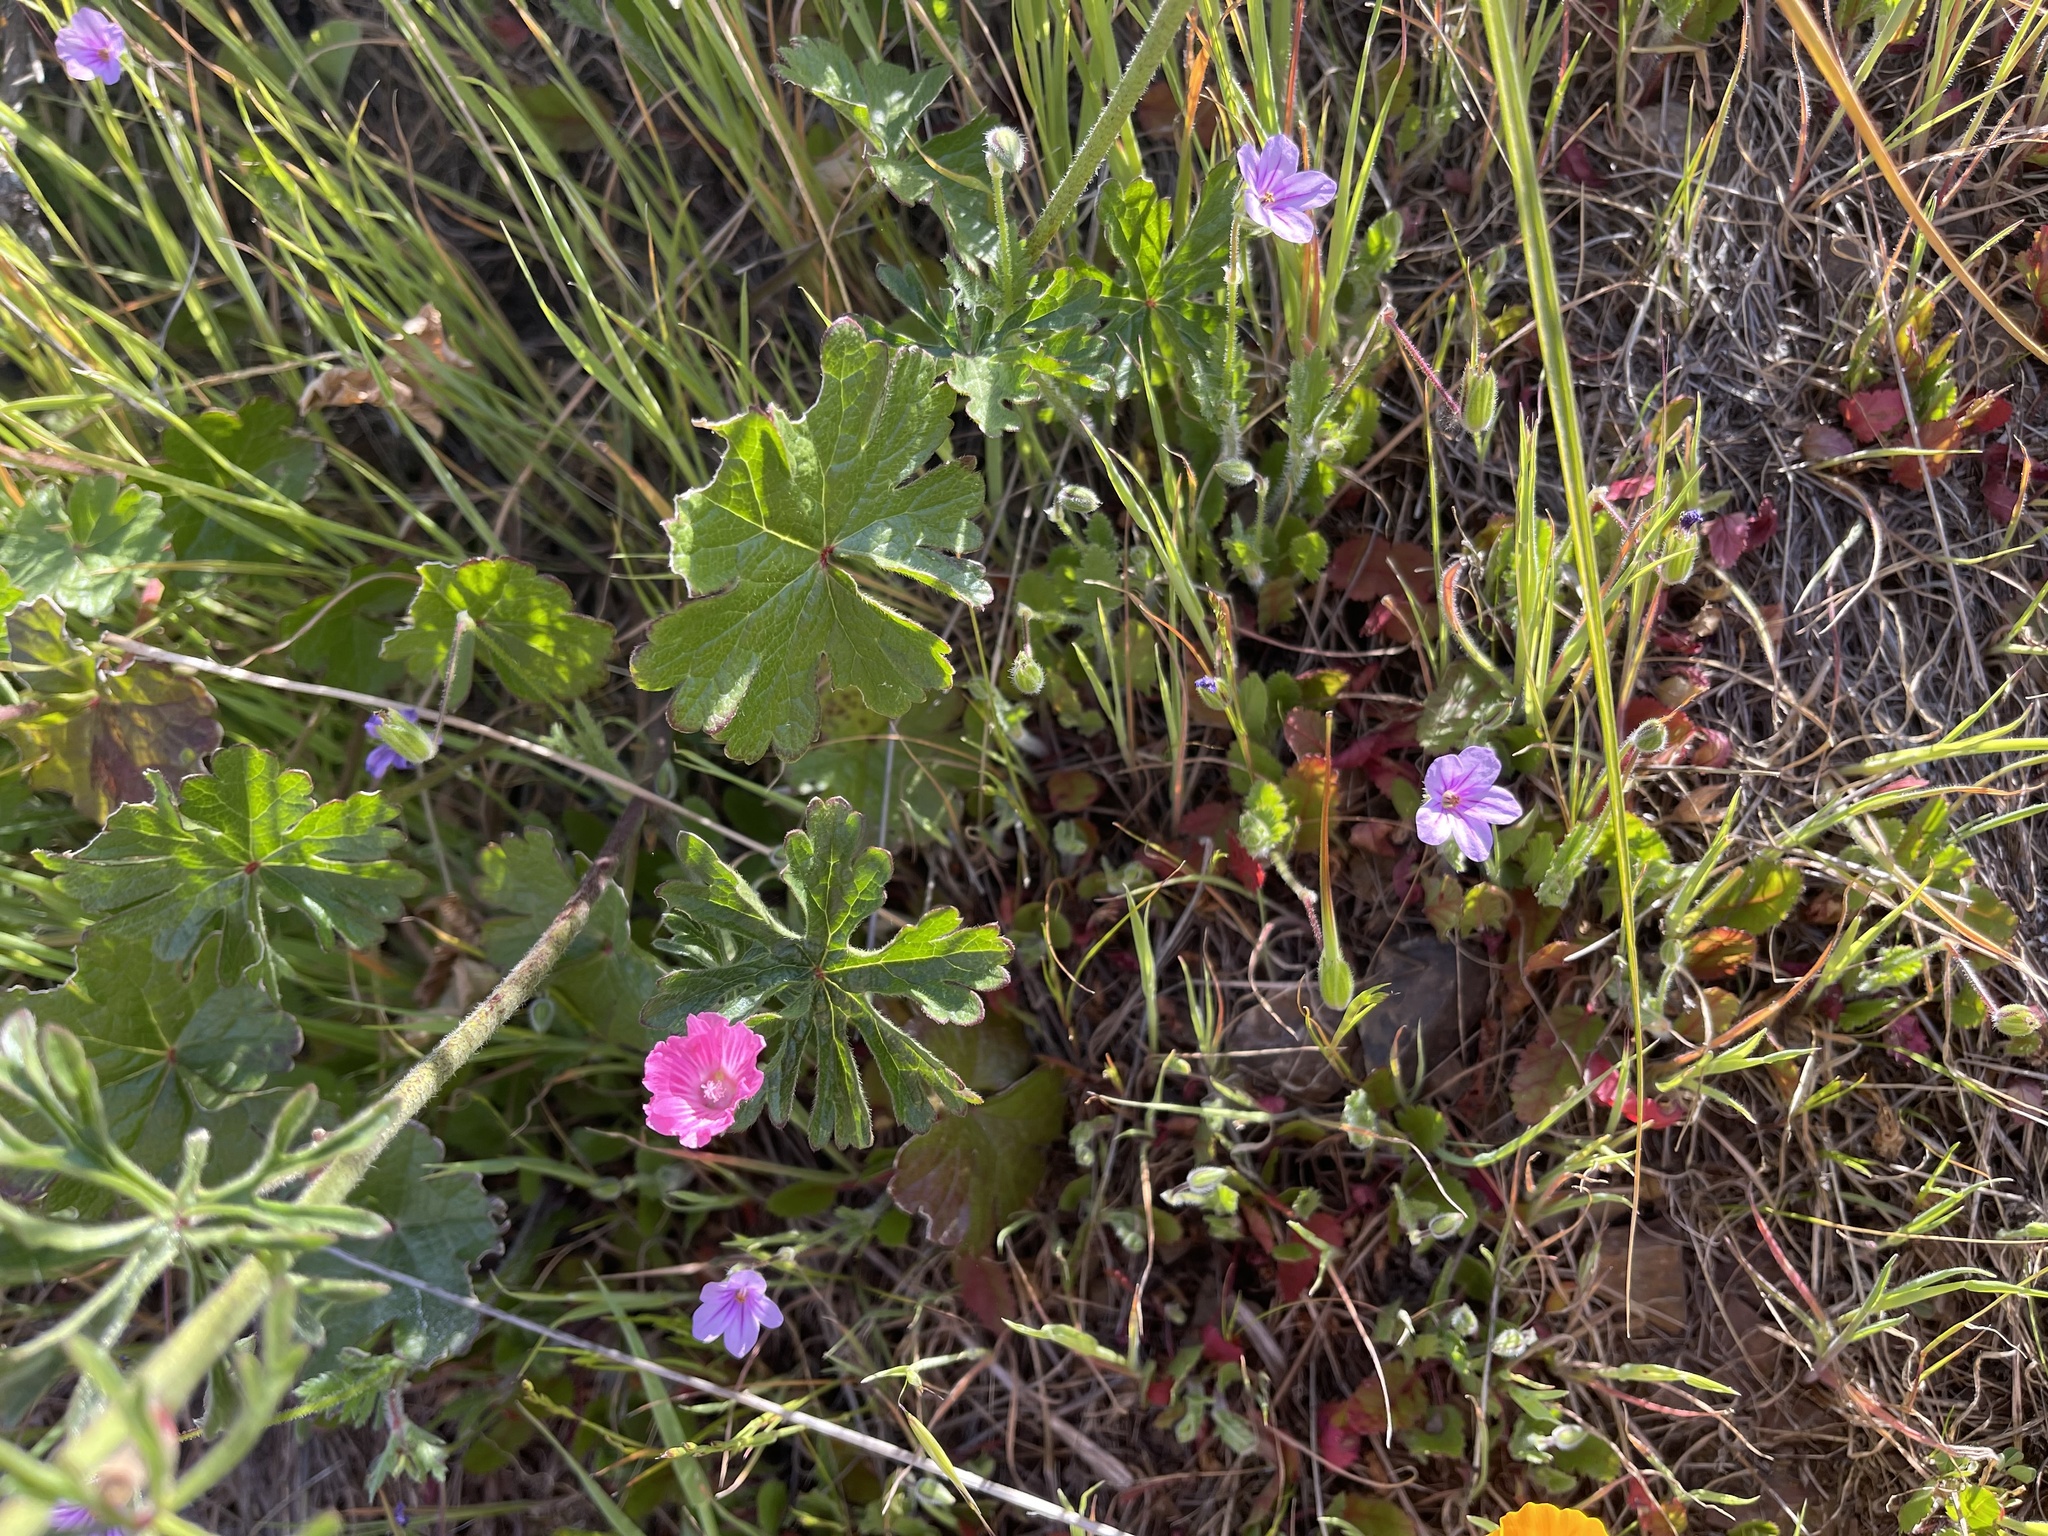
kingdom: Plantae
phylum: Tracheophyta
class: Magnoliopsida
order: Malvales
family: Malvaceae
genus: Sidalcea
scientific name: Sidalcea malviflora
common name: Greek mallow
